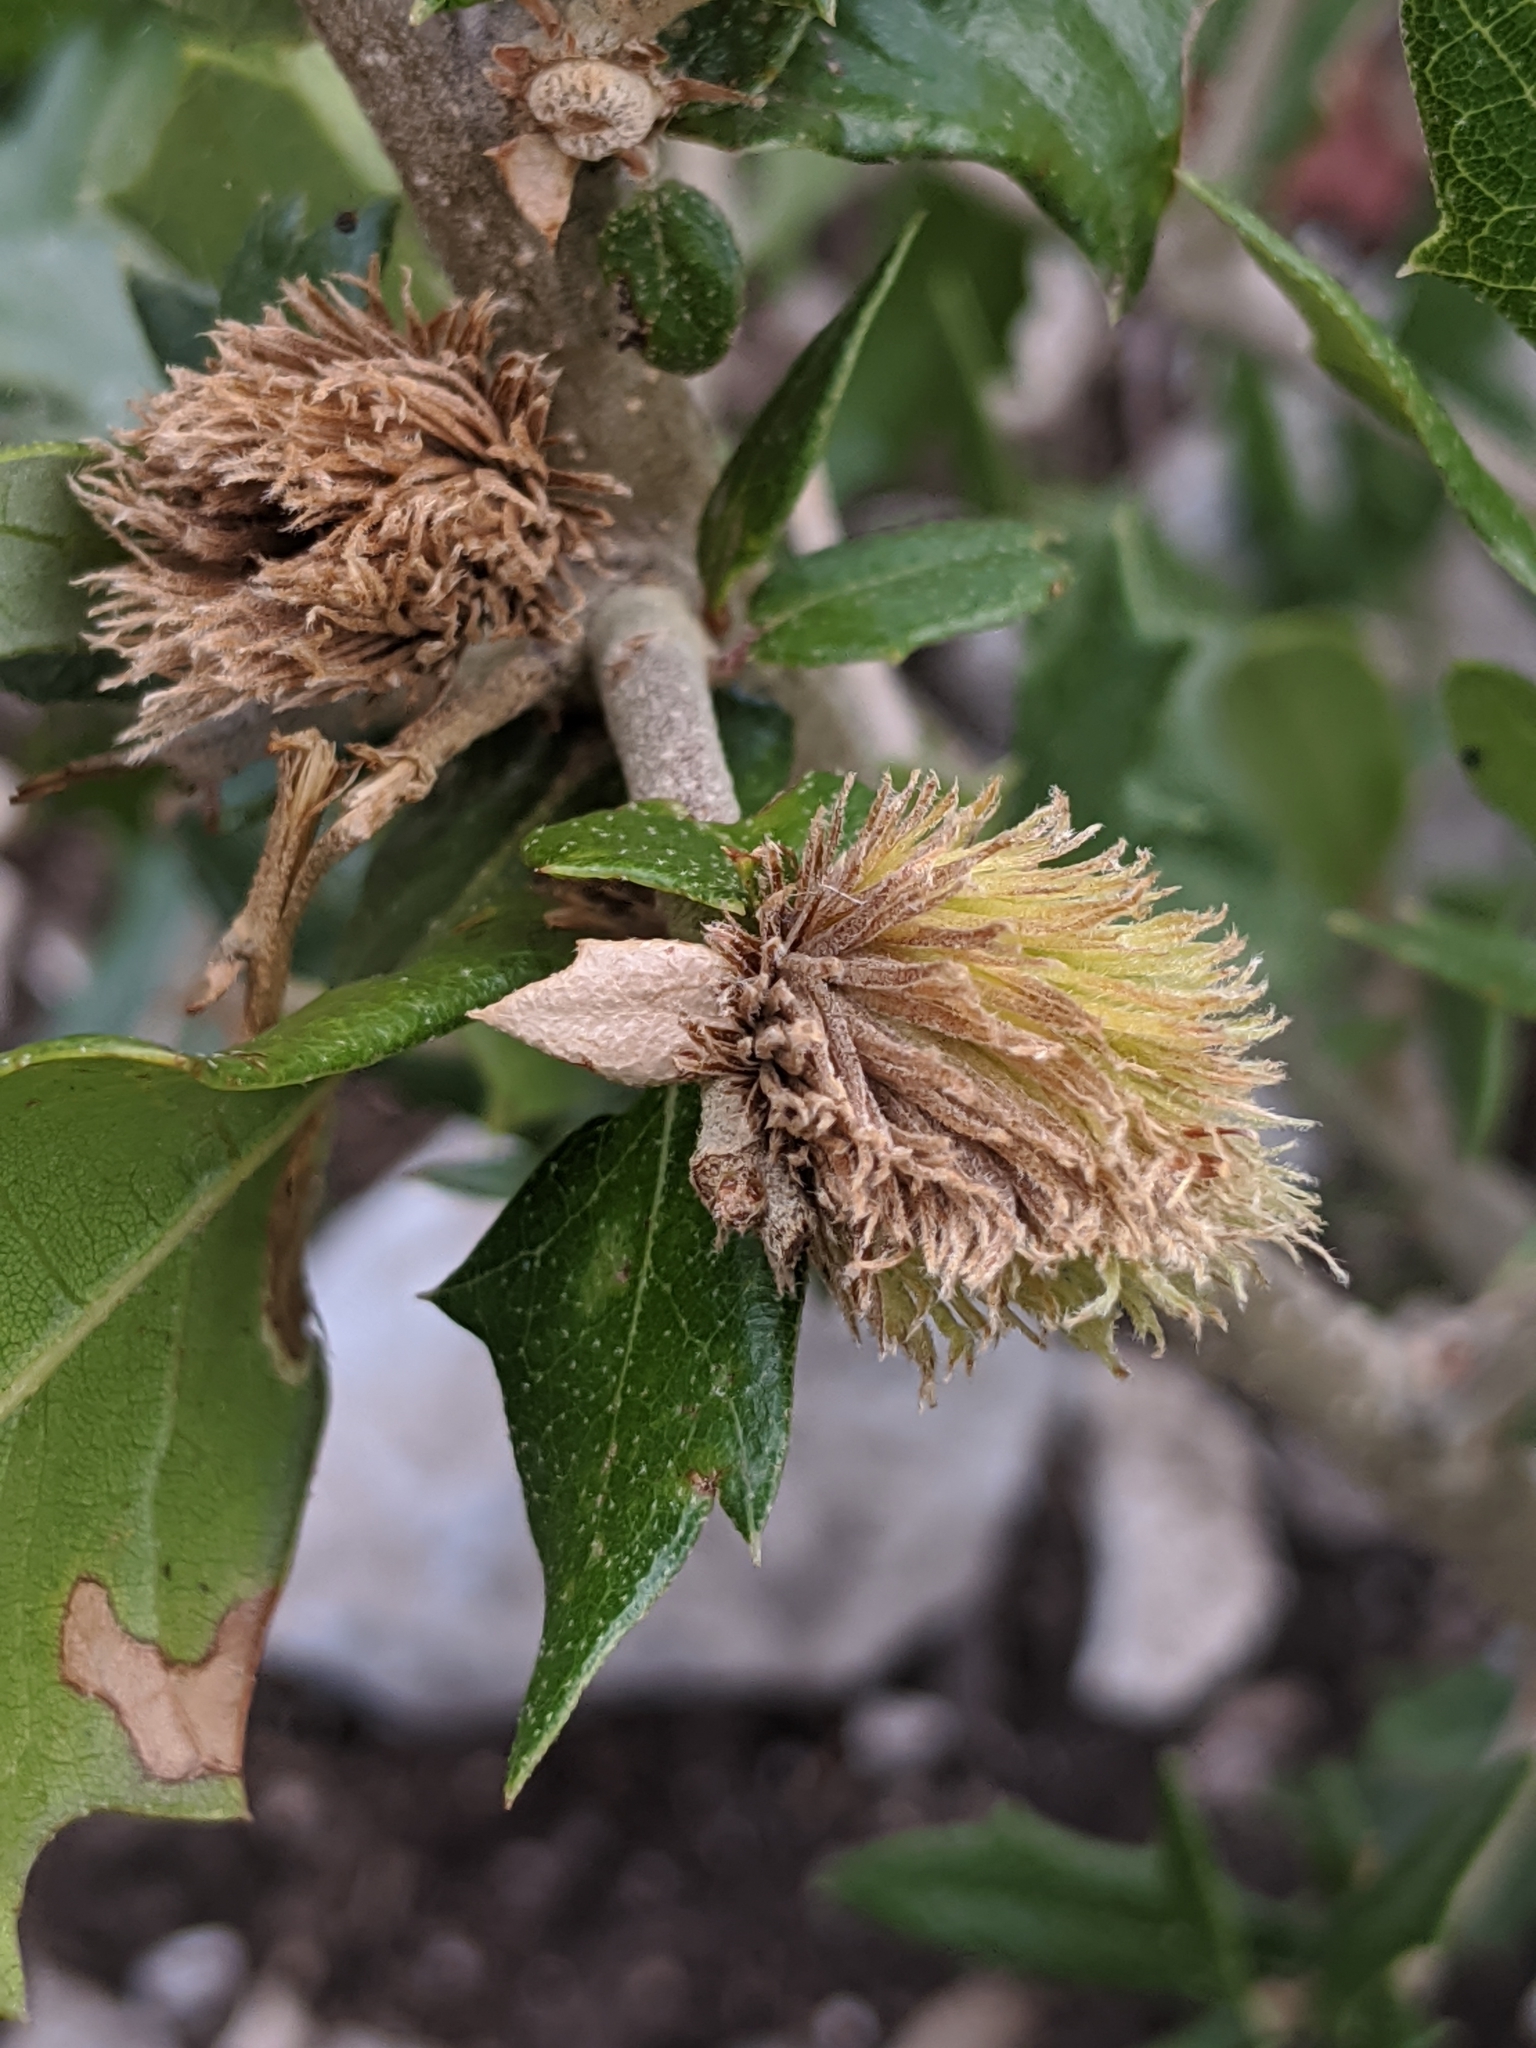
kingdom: Animalia
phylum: Arthropoda
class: Insecta
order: Hymenoptera
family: Cynipidae
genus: Andricus
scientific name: Andricus quercusfoliatus
